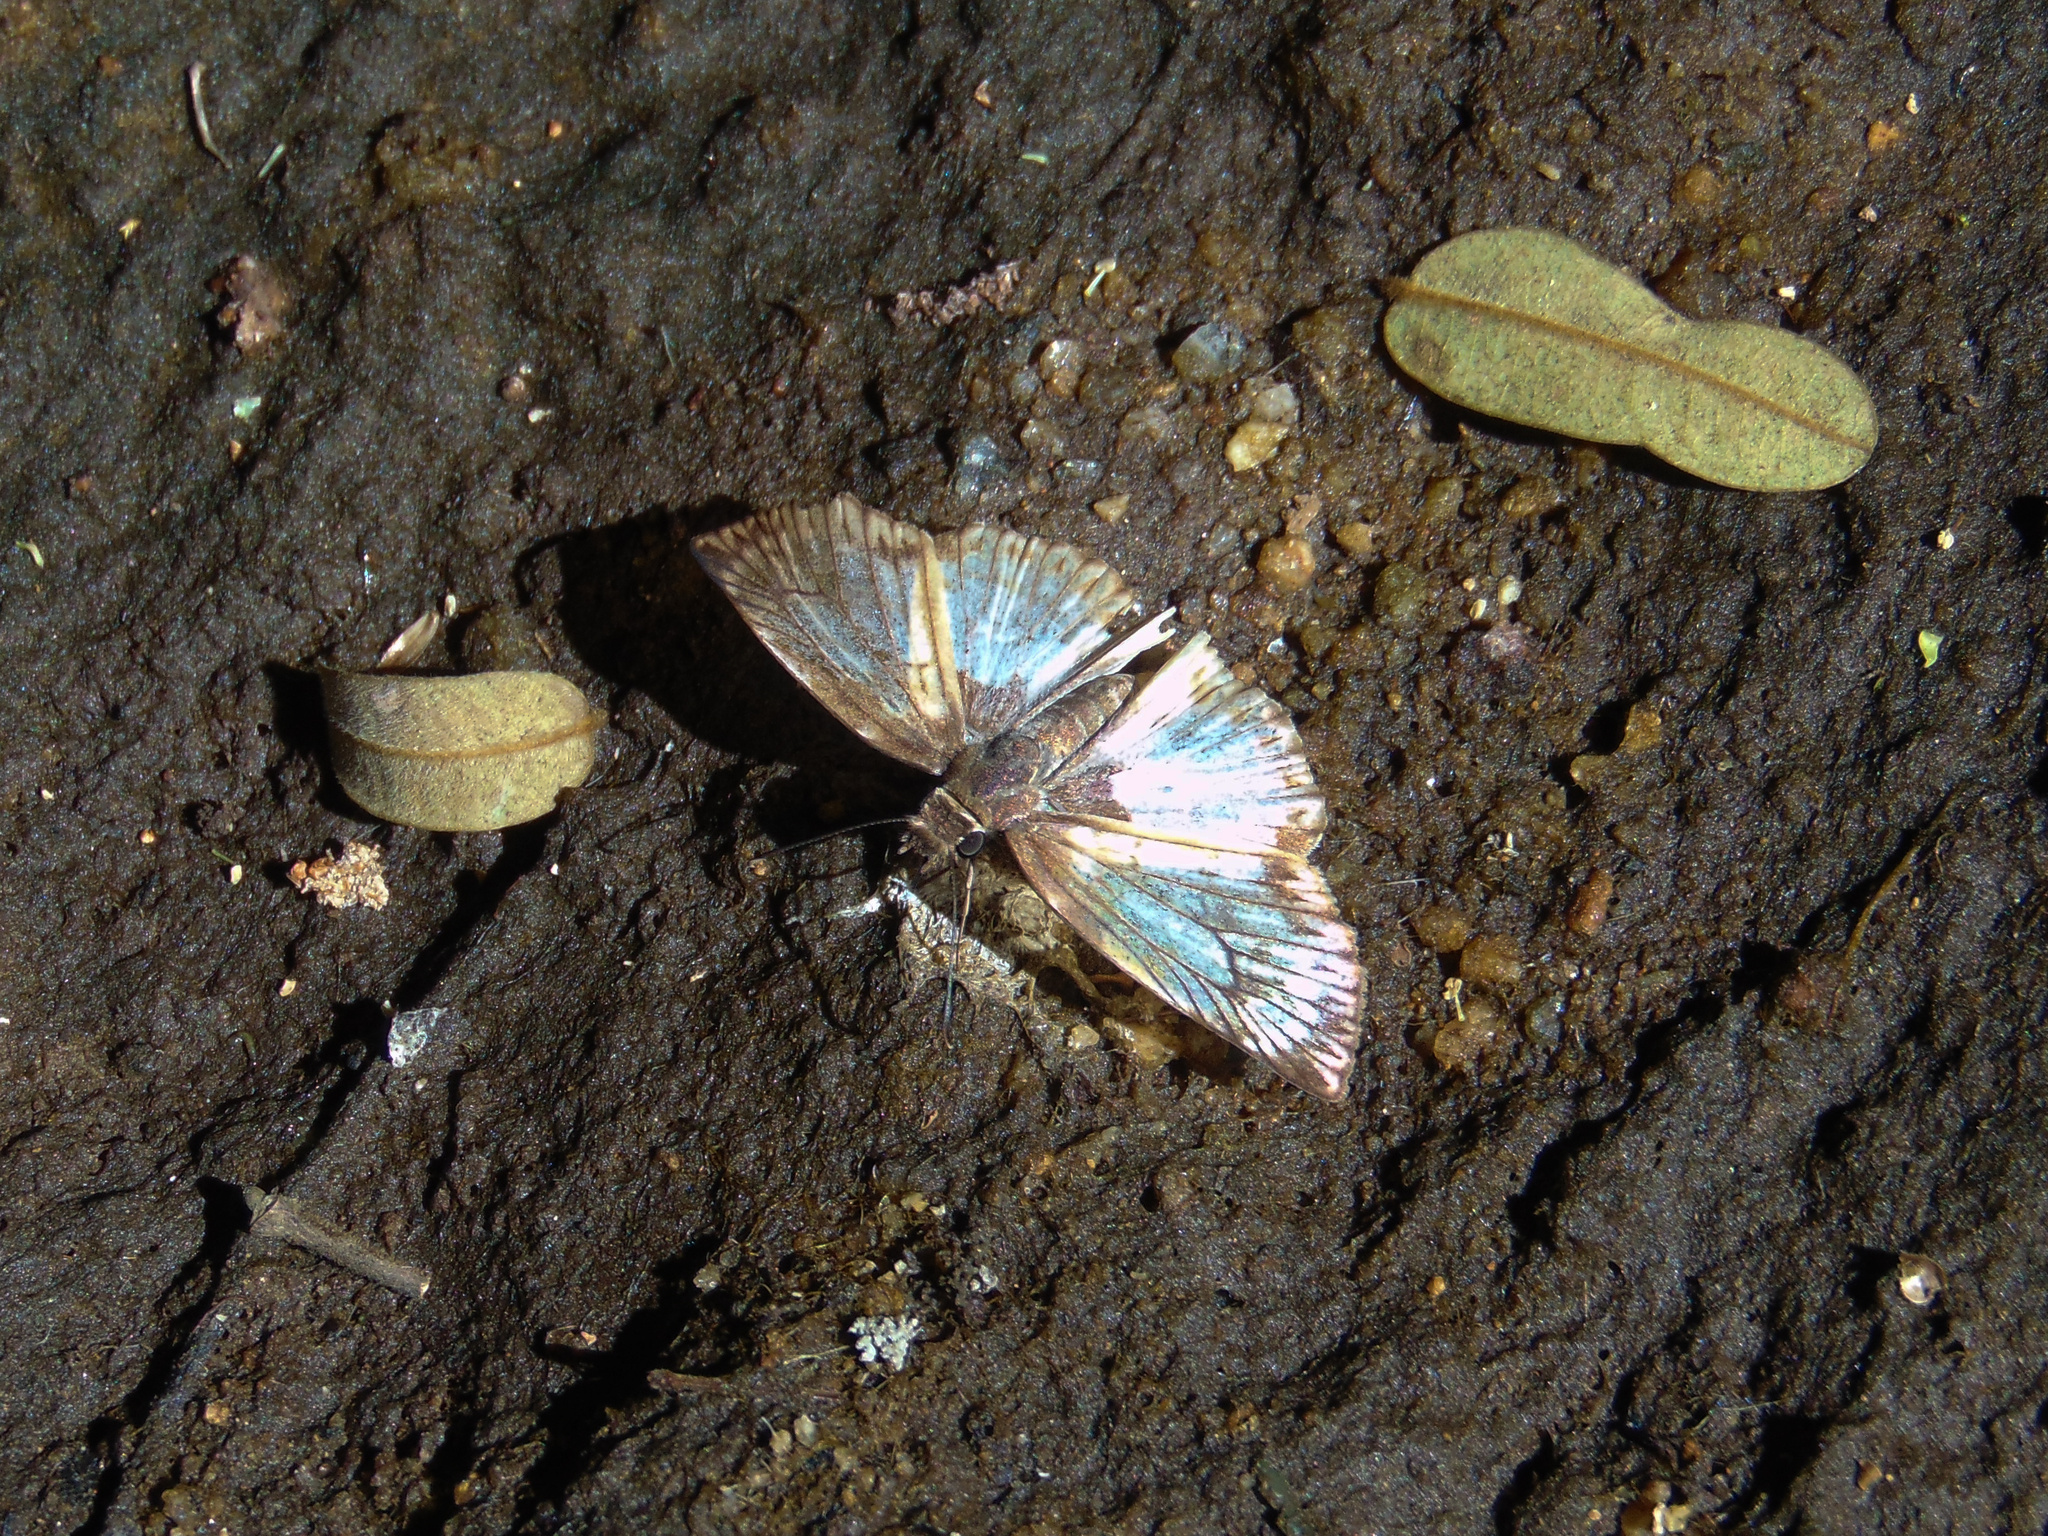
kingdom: Animalia
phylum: Arthropoda
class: Insecta
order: Lepidoptera
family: Hesperiidae
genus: Mylon
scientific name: Mylon maimon
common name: Common mylon
